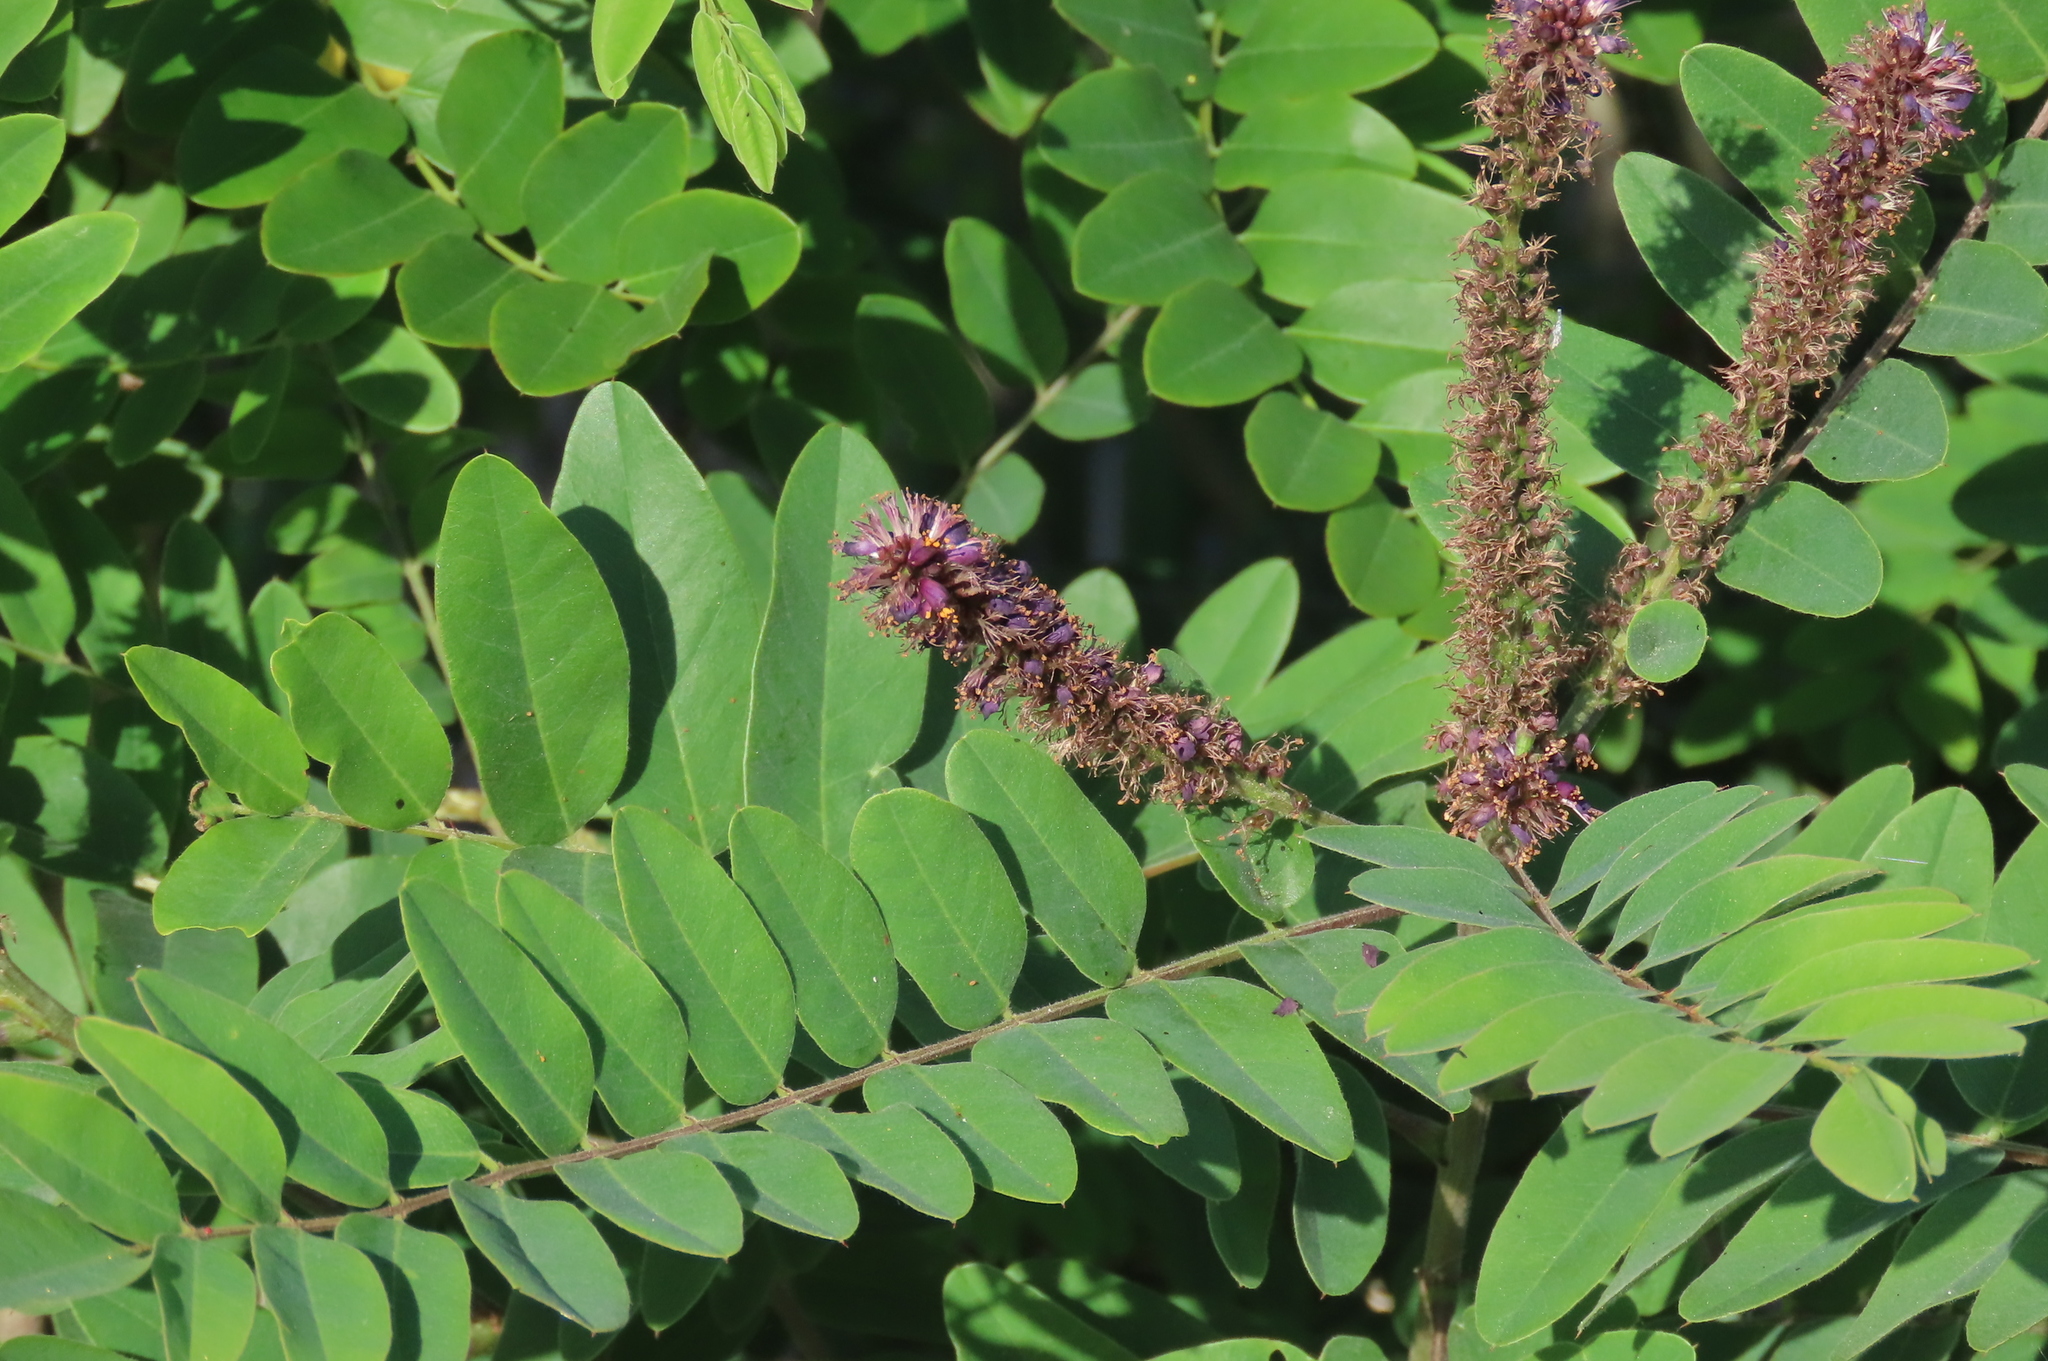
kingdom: Plantae
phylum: Tracheophyta
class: Magnoliopsida
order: Fabales
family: Fabaceae
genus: Amorpha
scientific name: Amorpha fruticosa
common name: False indigo
